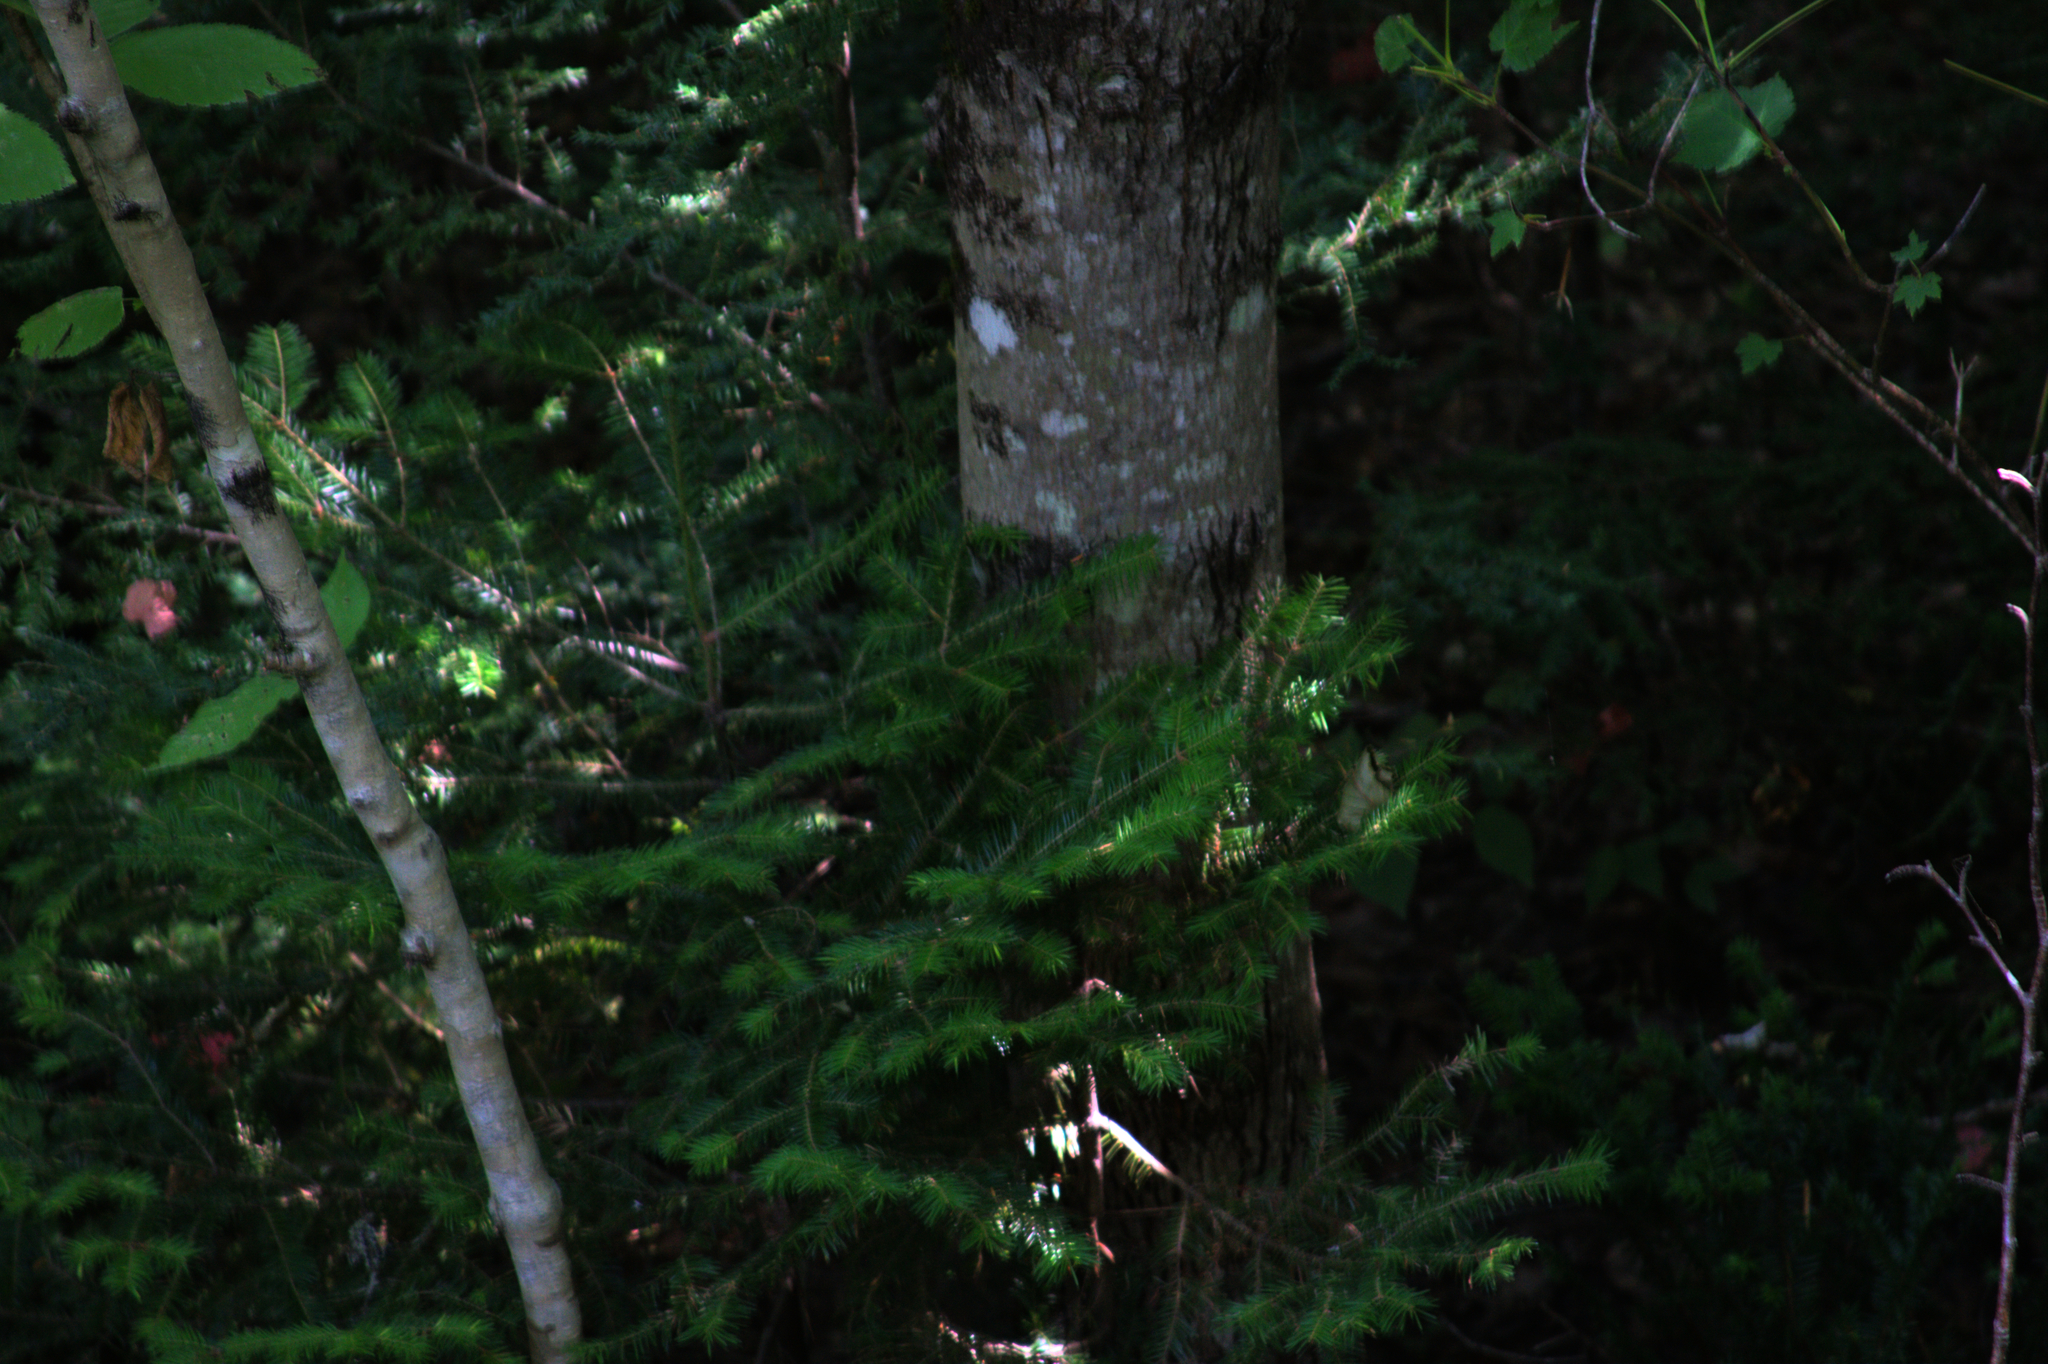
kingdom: Plantae
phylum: Tracheophyta
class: Pinopsida
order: Pinales
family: Pinaceae
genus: Abies
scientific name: Abies balsamea
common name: Balsam fir
